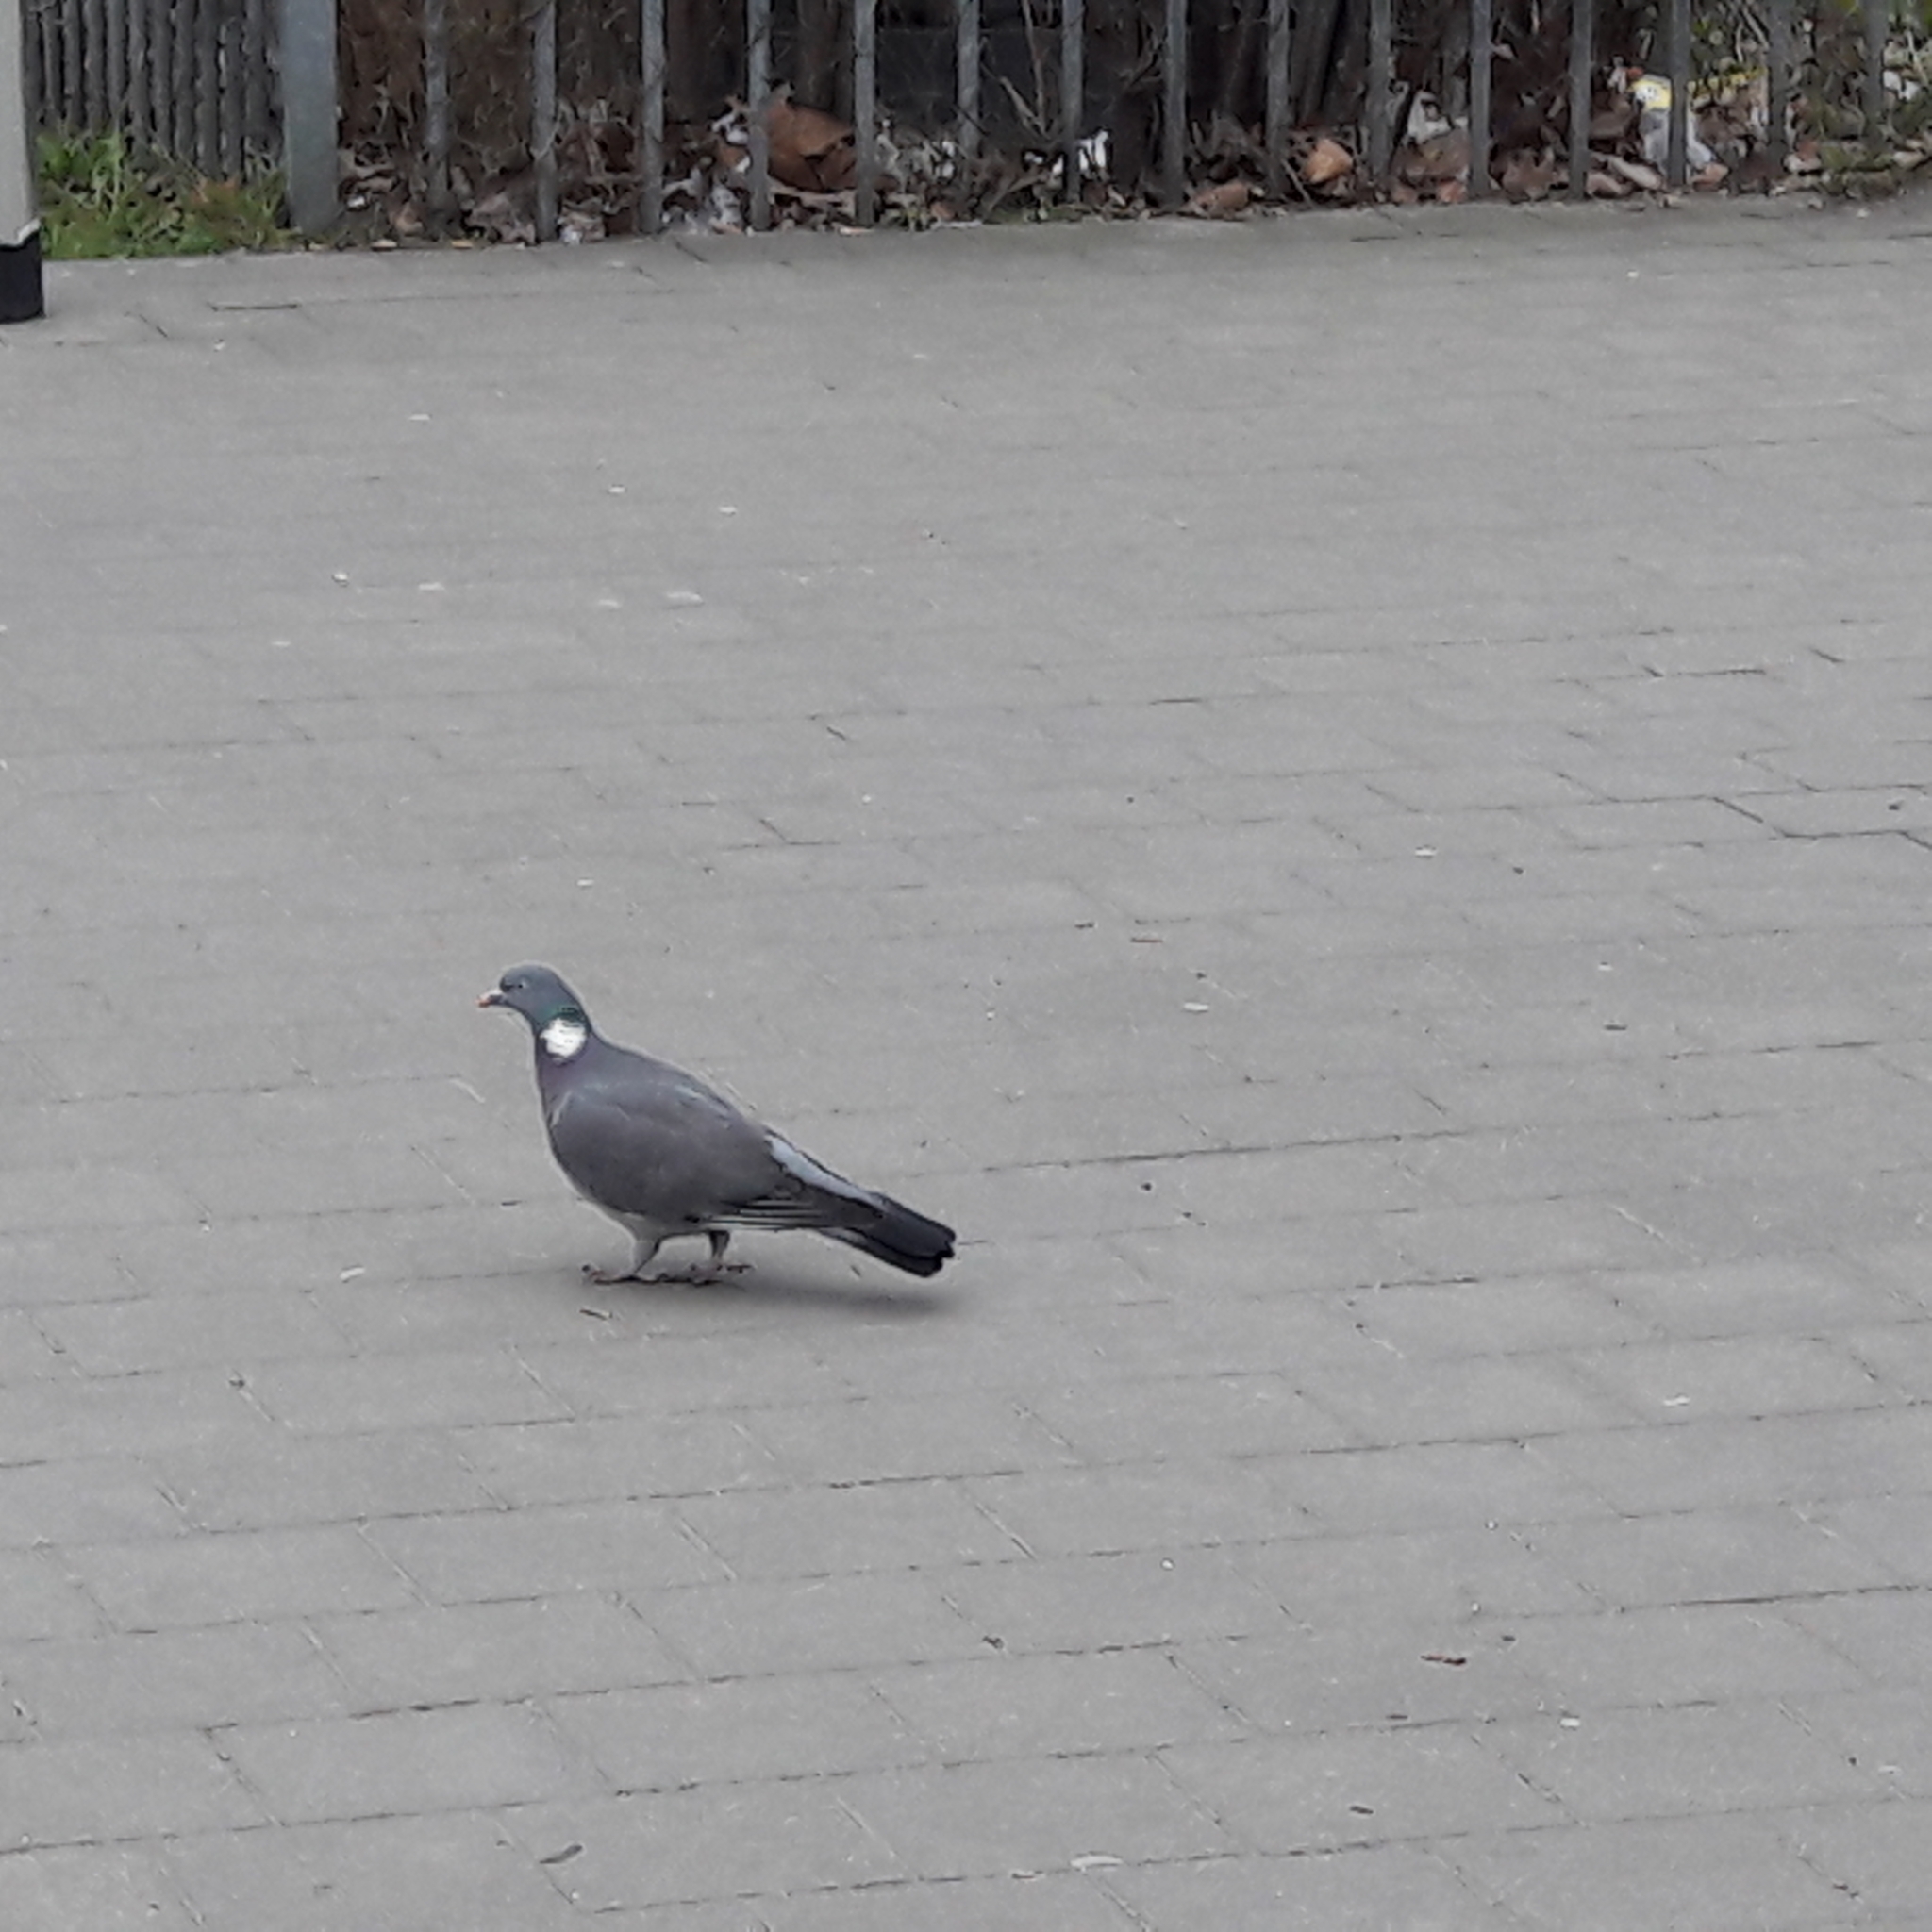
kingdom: Animalia
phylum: Chordata
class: Aves
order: Columbiformes
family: Columbidae
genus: Columba
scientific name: Columba palumbus
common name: Common wood pigeon
